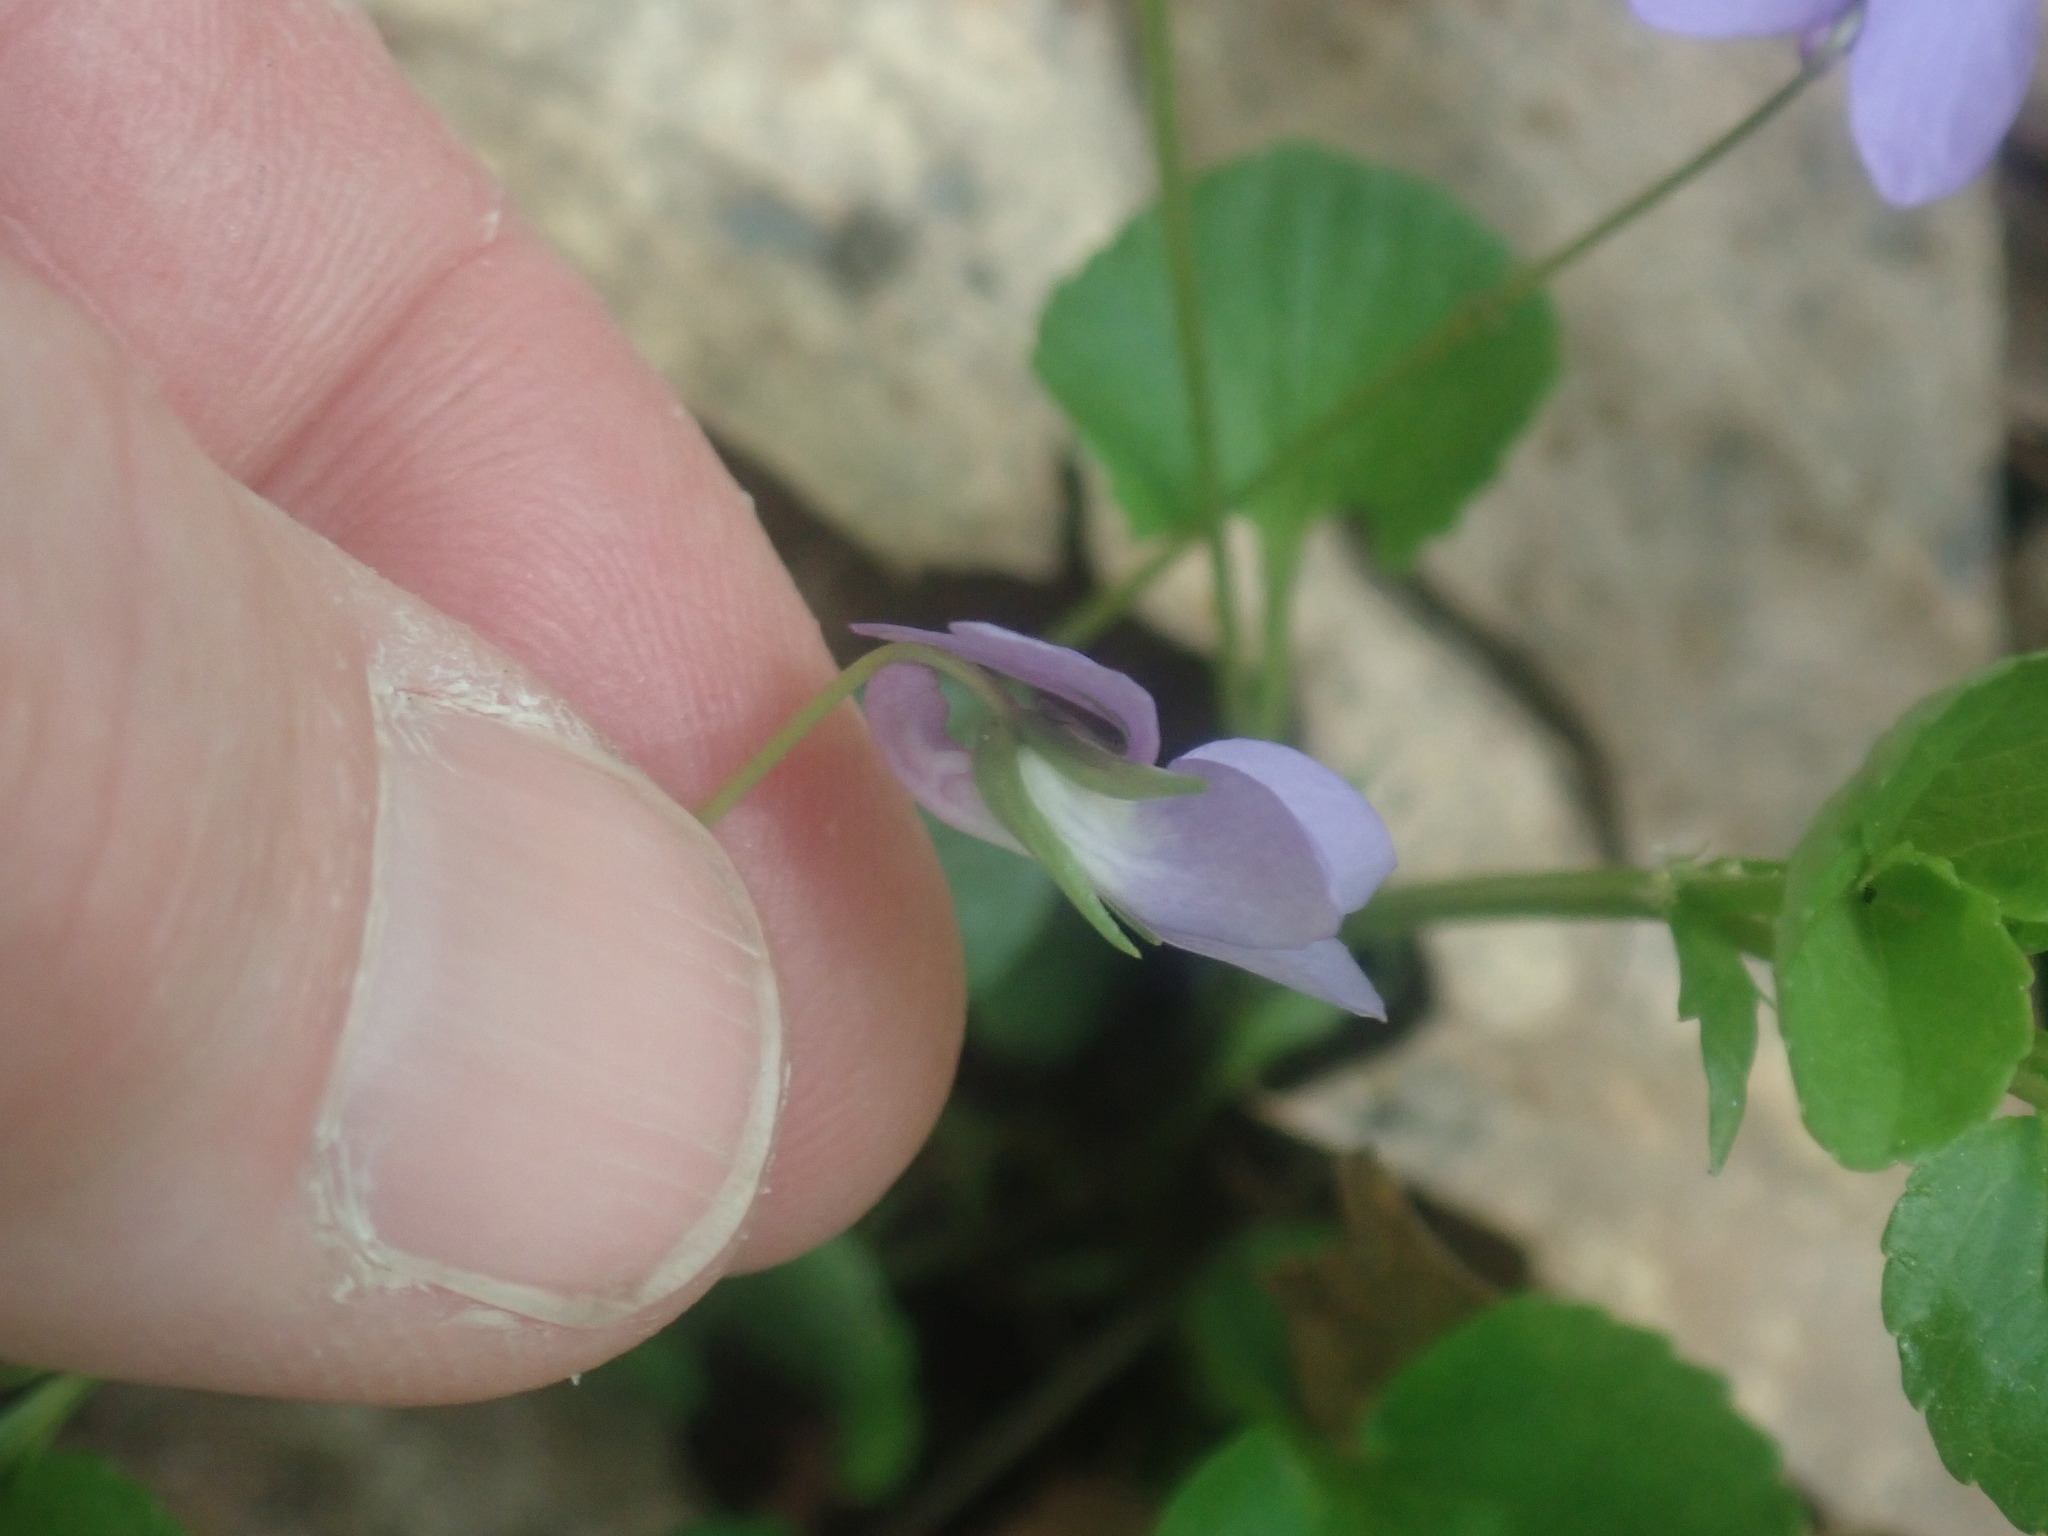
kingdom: Plantae
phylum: Tracheophyta
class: Magnoliopsida
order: Malpighiales
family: Violaceae
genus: Viola
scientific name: Viola labradorica
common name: Labrador violet
